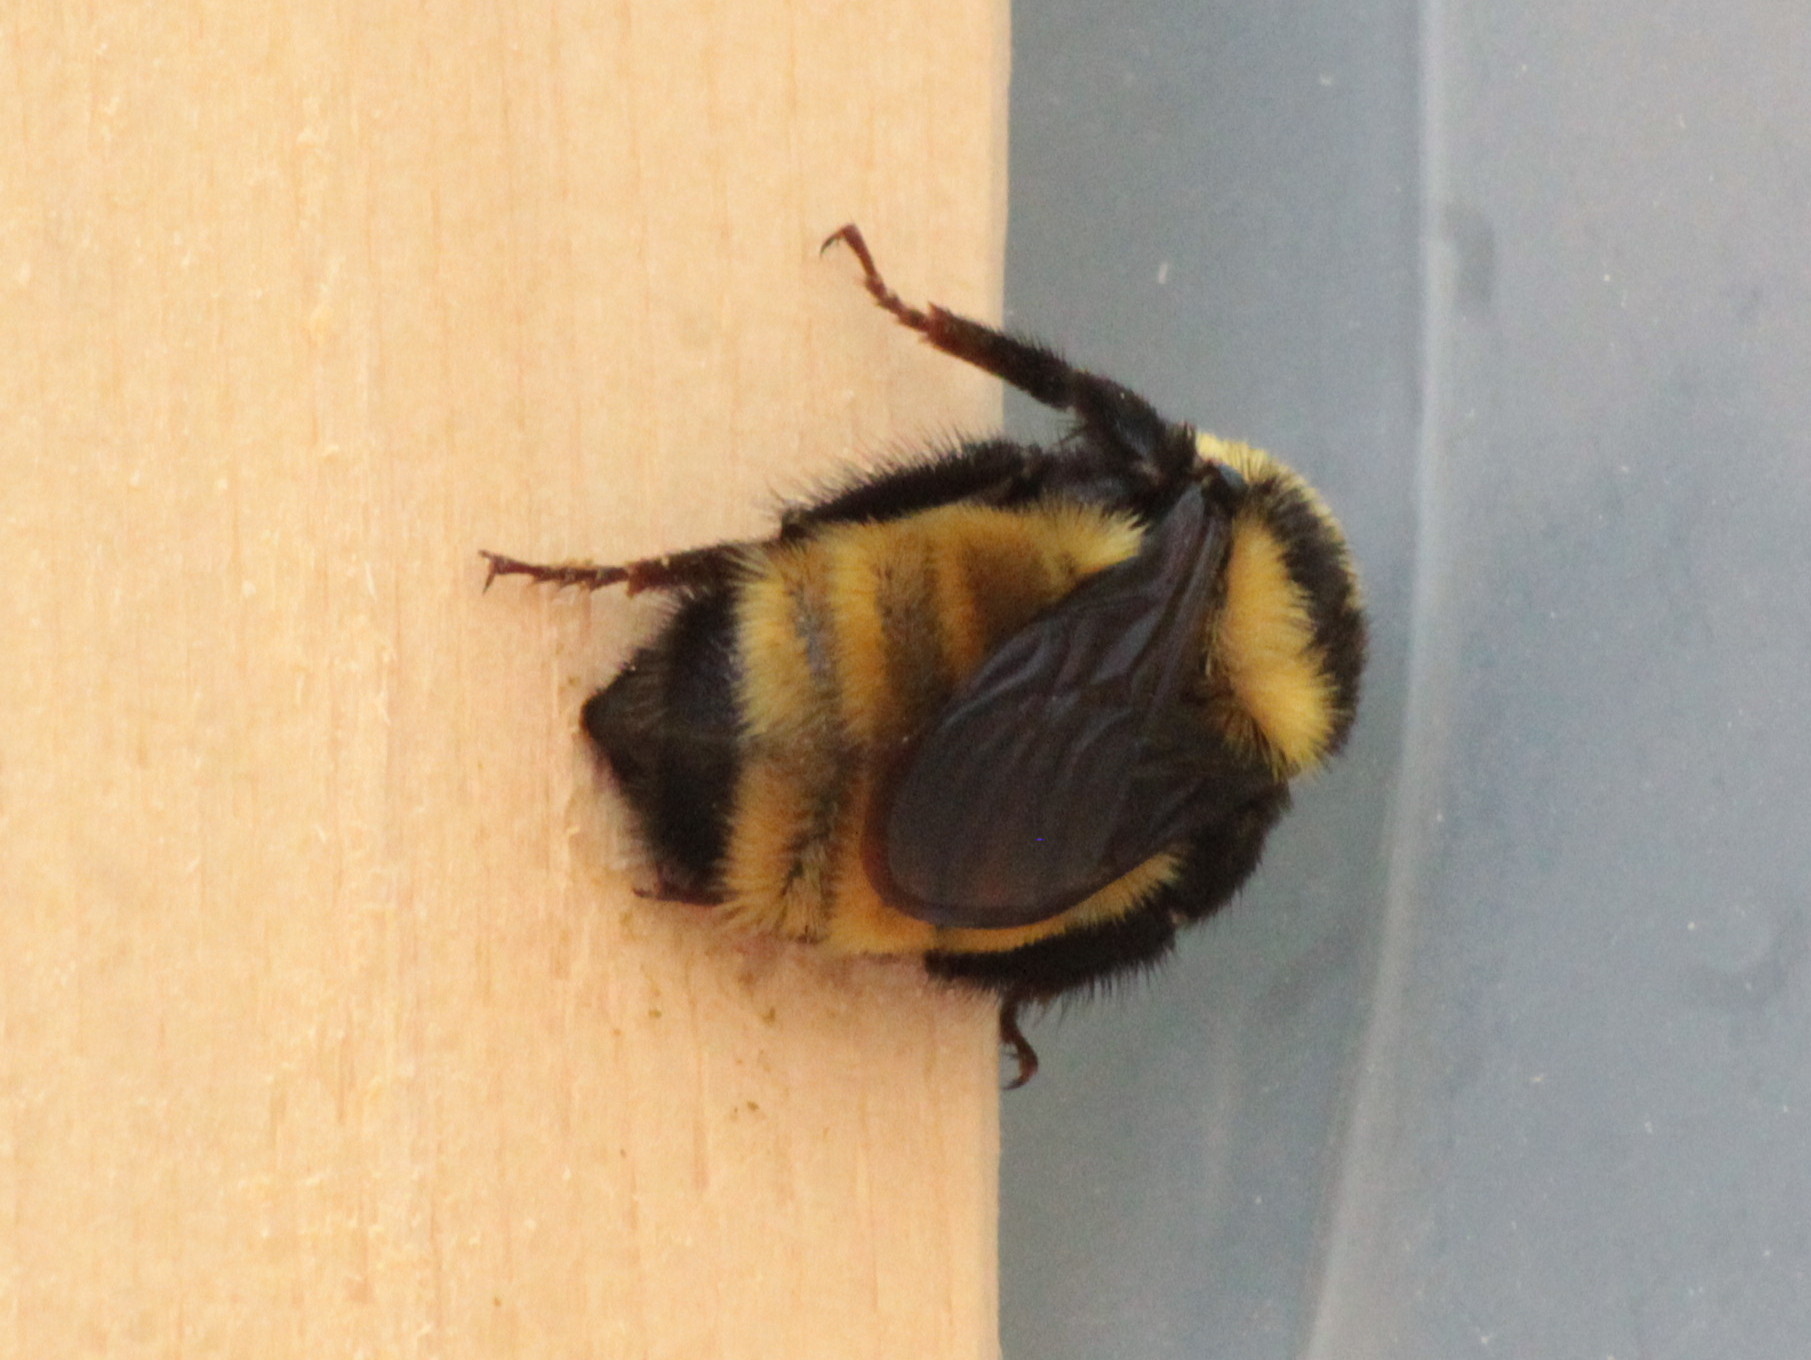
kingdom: Animalia
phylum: Arthropoda
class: Insecta
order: Hymenoptera
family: Apidae
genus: Bombus
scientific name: Bombus borealis
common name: Northern amber bumble bee
